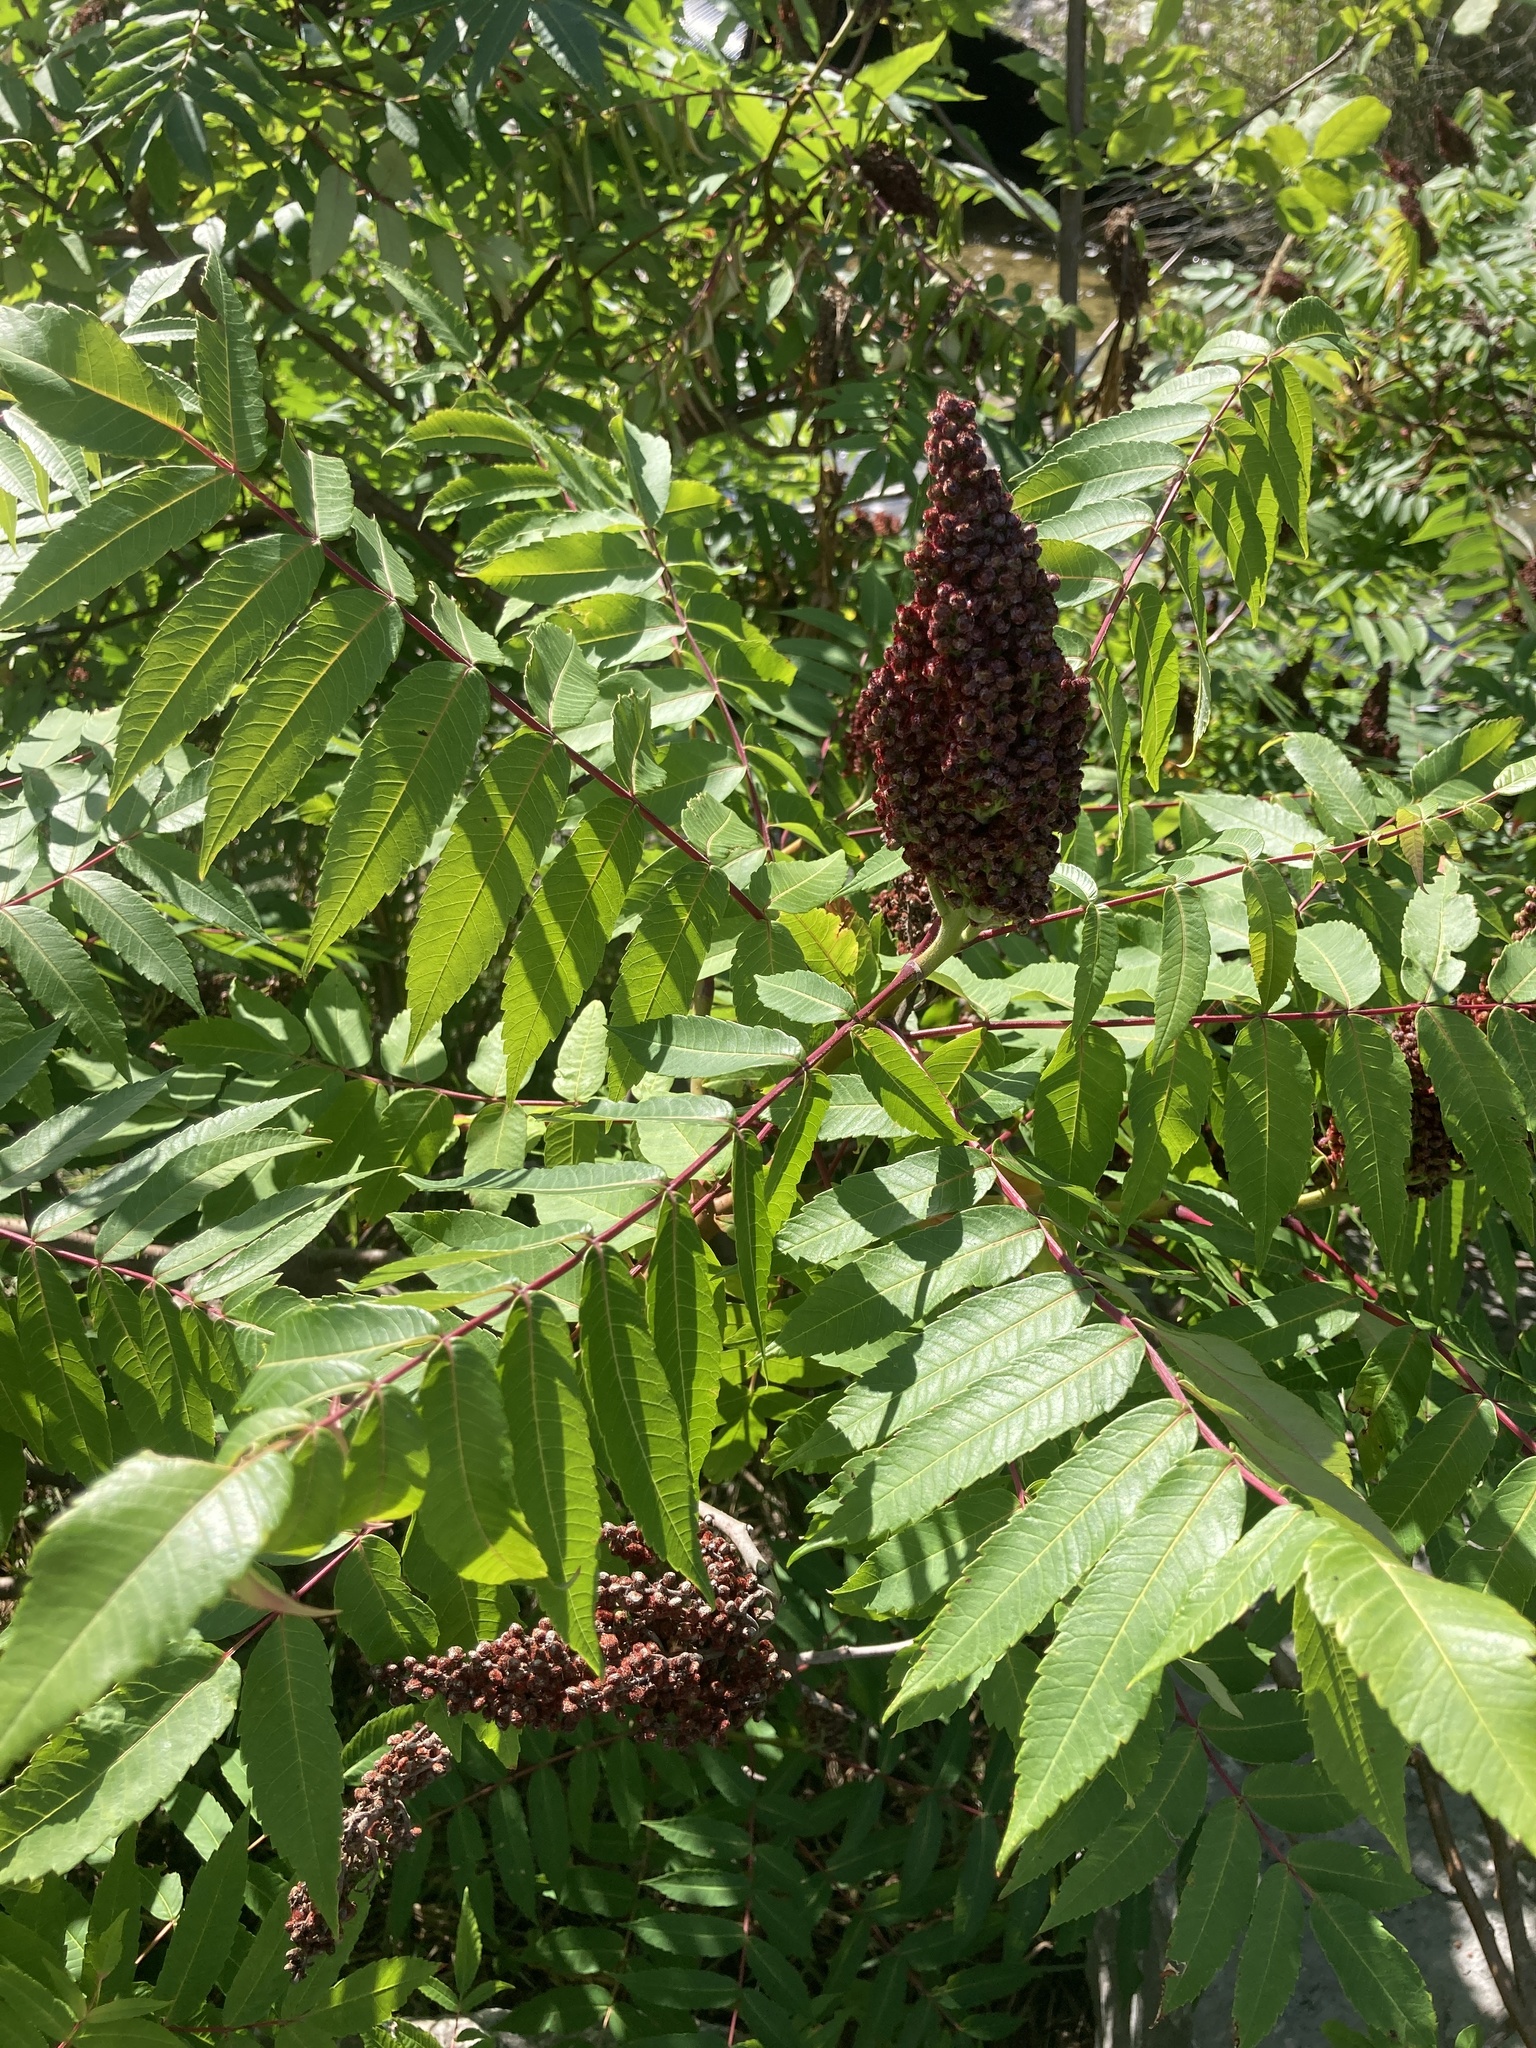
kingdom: Plantae
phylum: Tracheophyta
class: Magnoliopsida
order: Sapindales
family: Anacardiaceae
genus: Rhus
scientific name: Rhus glabra
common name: Scarlet sumac
